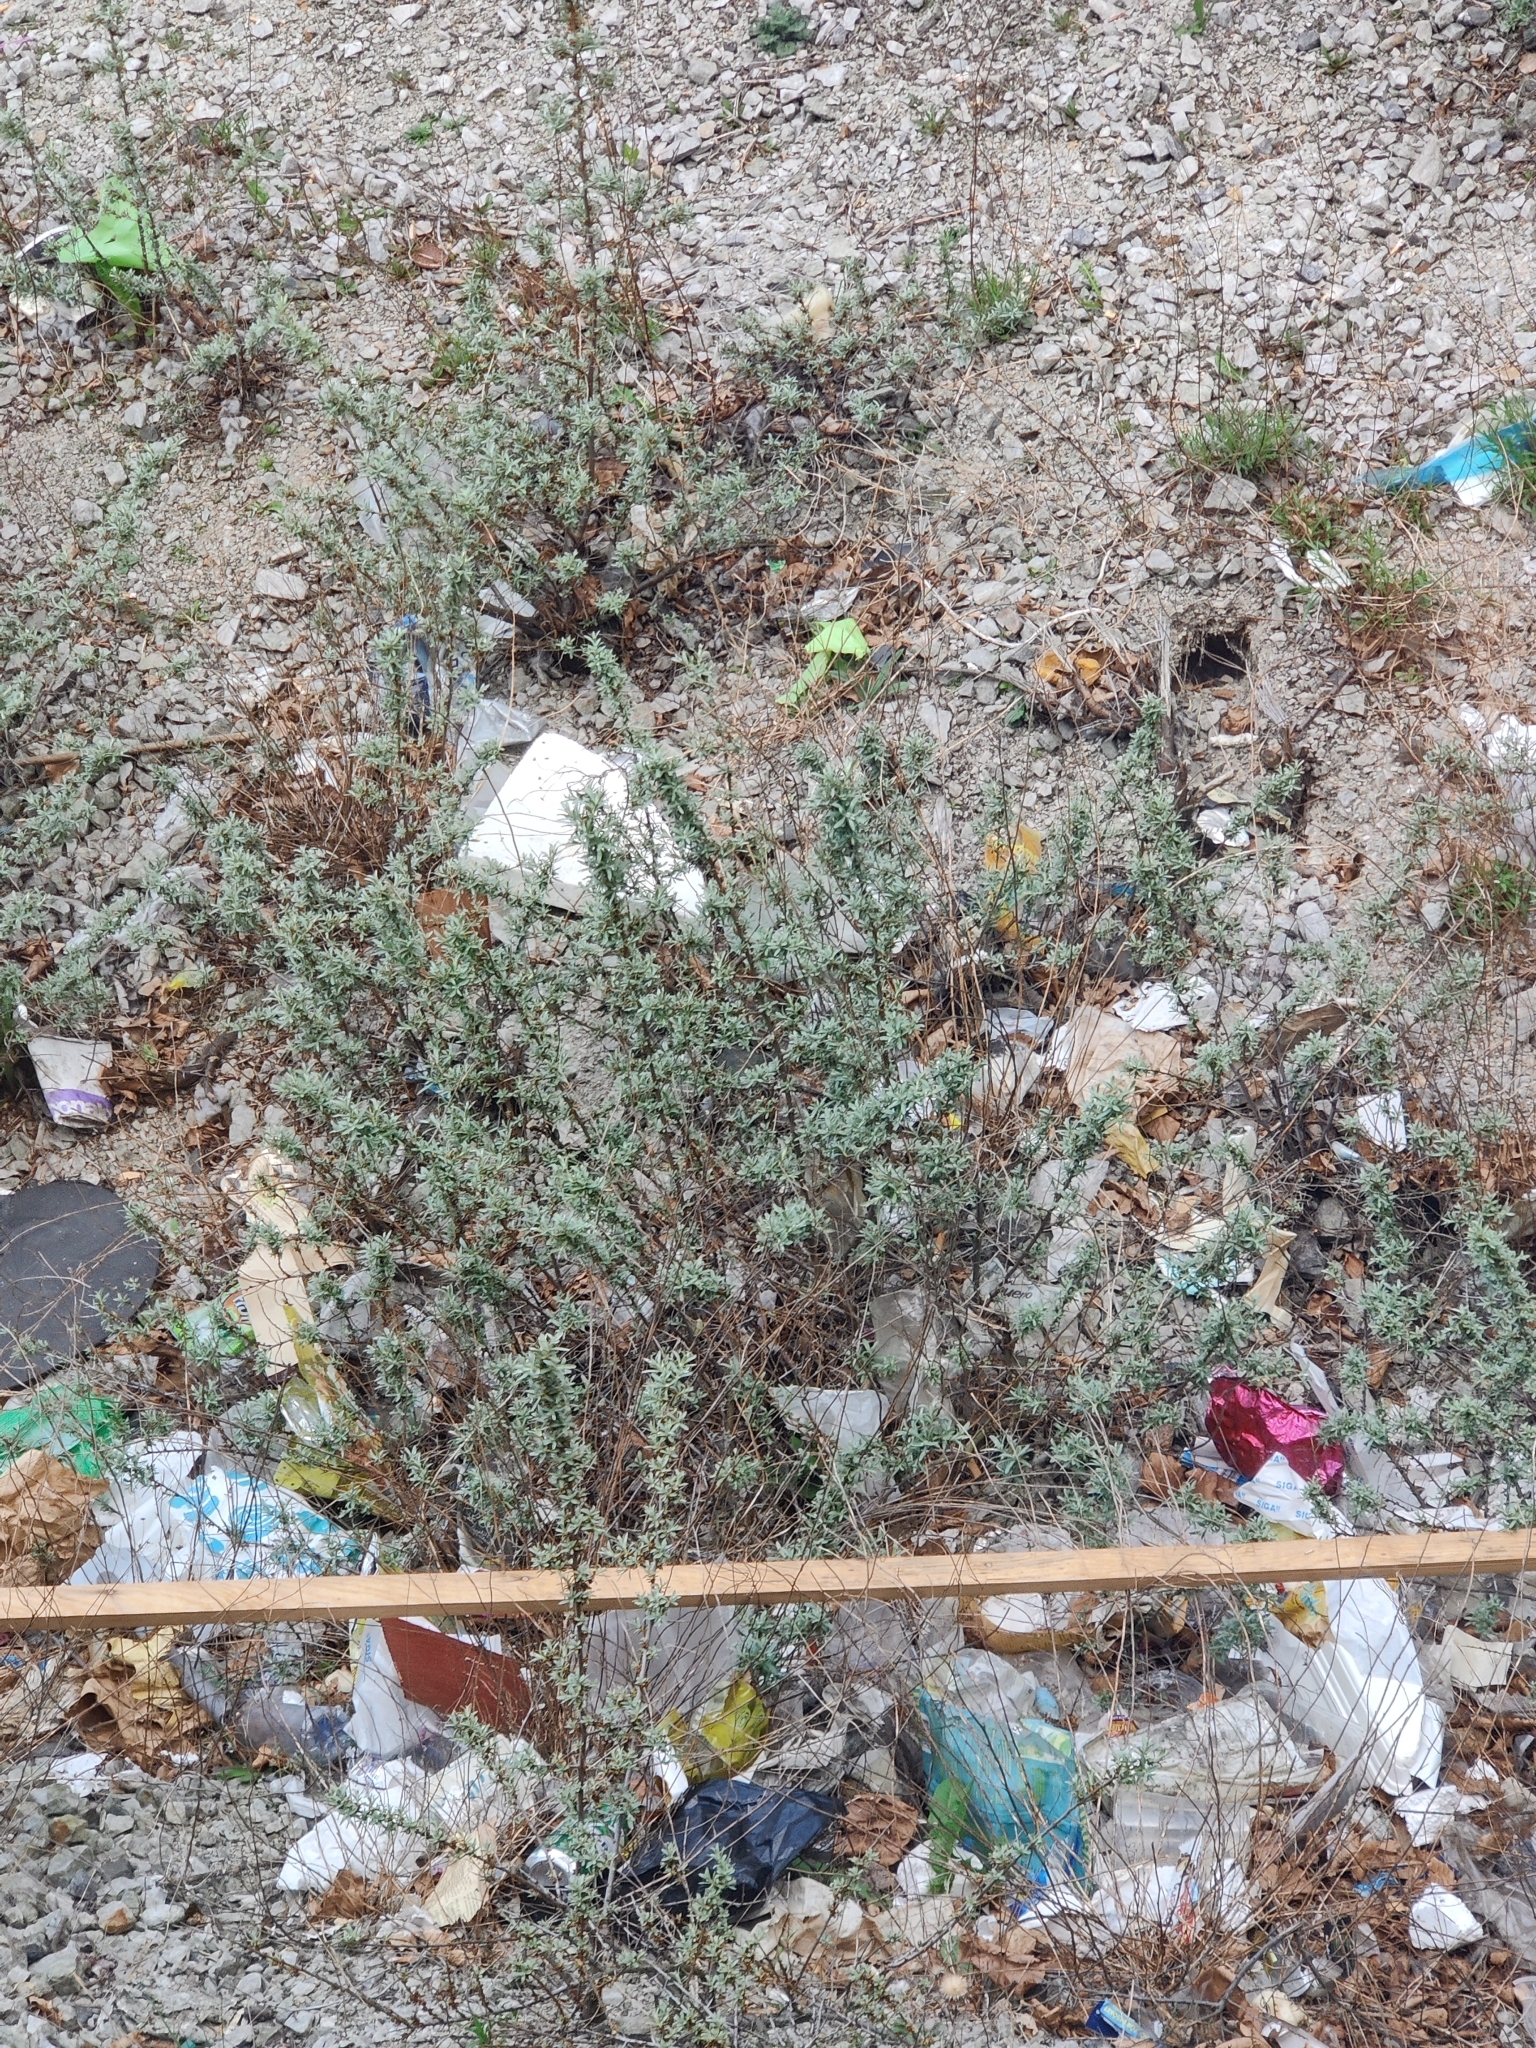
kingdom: Plantae
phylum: Tracheophyta
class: Magnoliopsida
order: Rosales
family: Elaeagnaceae
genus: Hippophae
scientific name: Hippophae rhamnoides
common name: Sea-buckthorn
